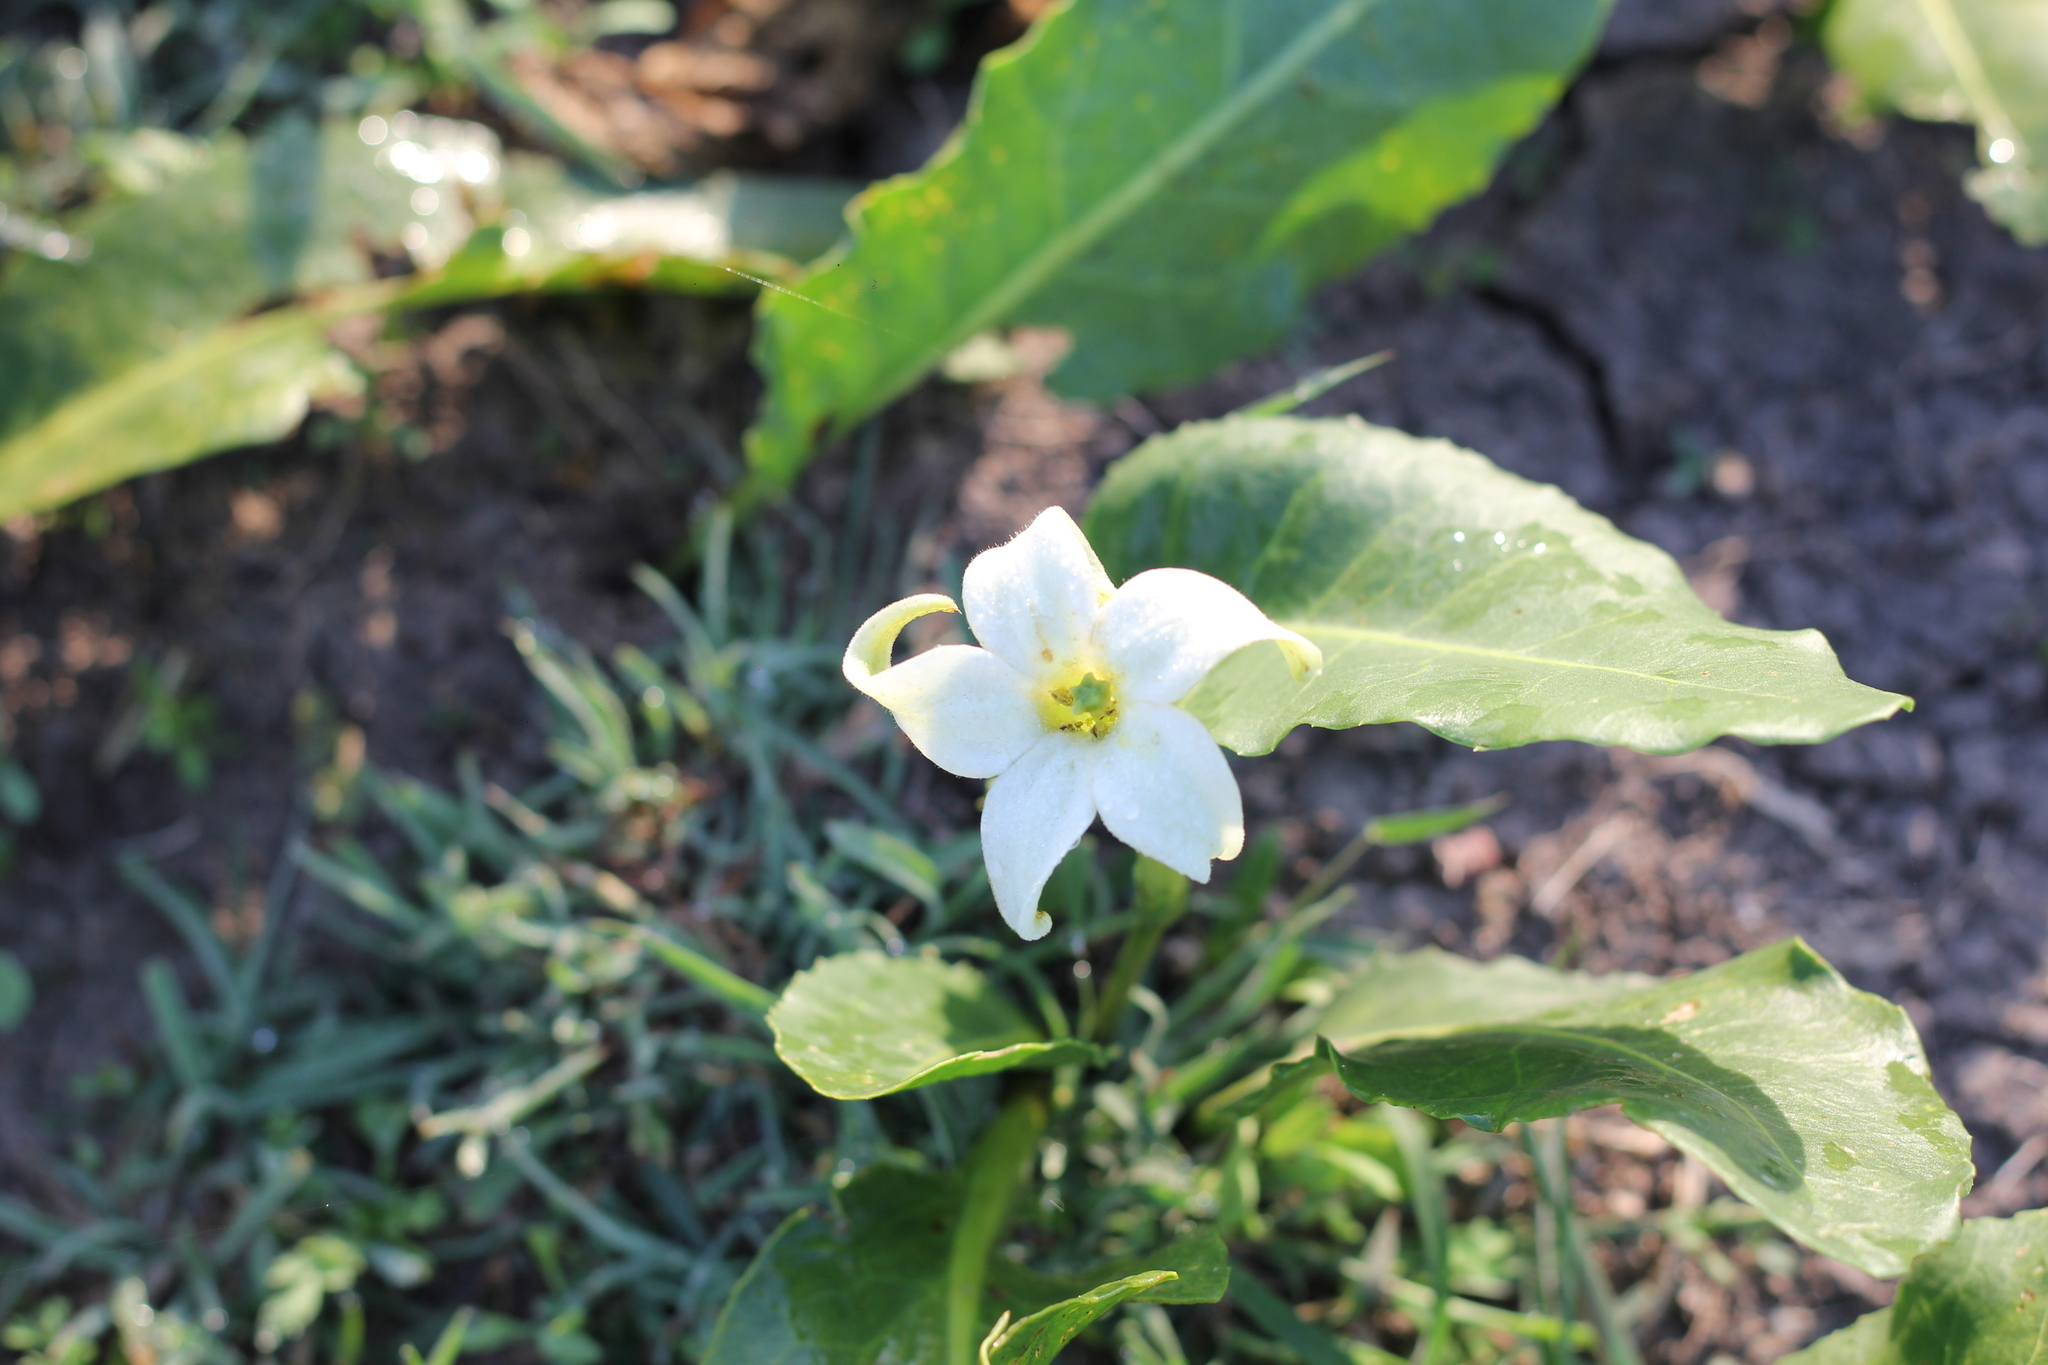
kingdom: Plantae
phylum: Tracheophyta
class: Magnoliopsida
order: Solanales
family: Solanaceae
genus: Jaborosa
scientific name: Jaborosa integrifolia
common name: Springblossom
